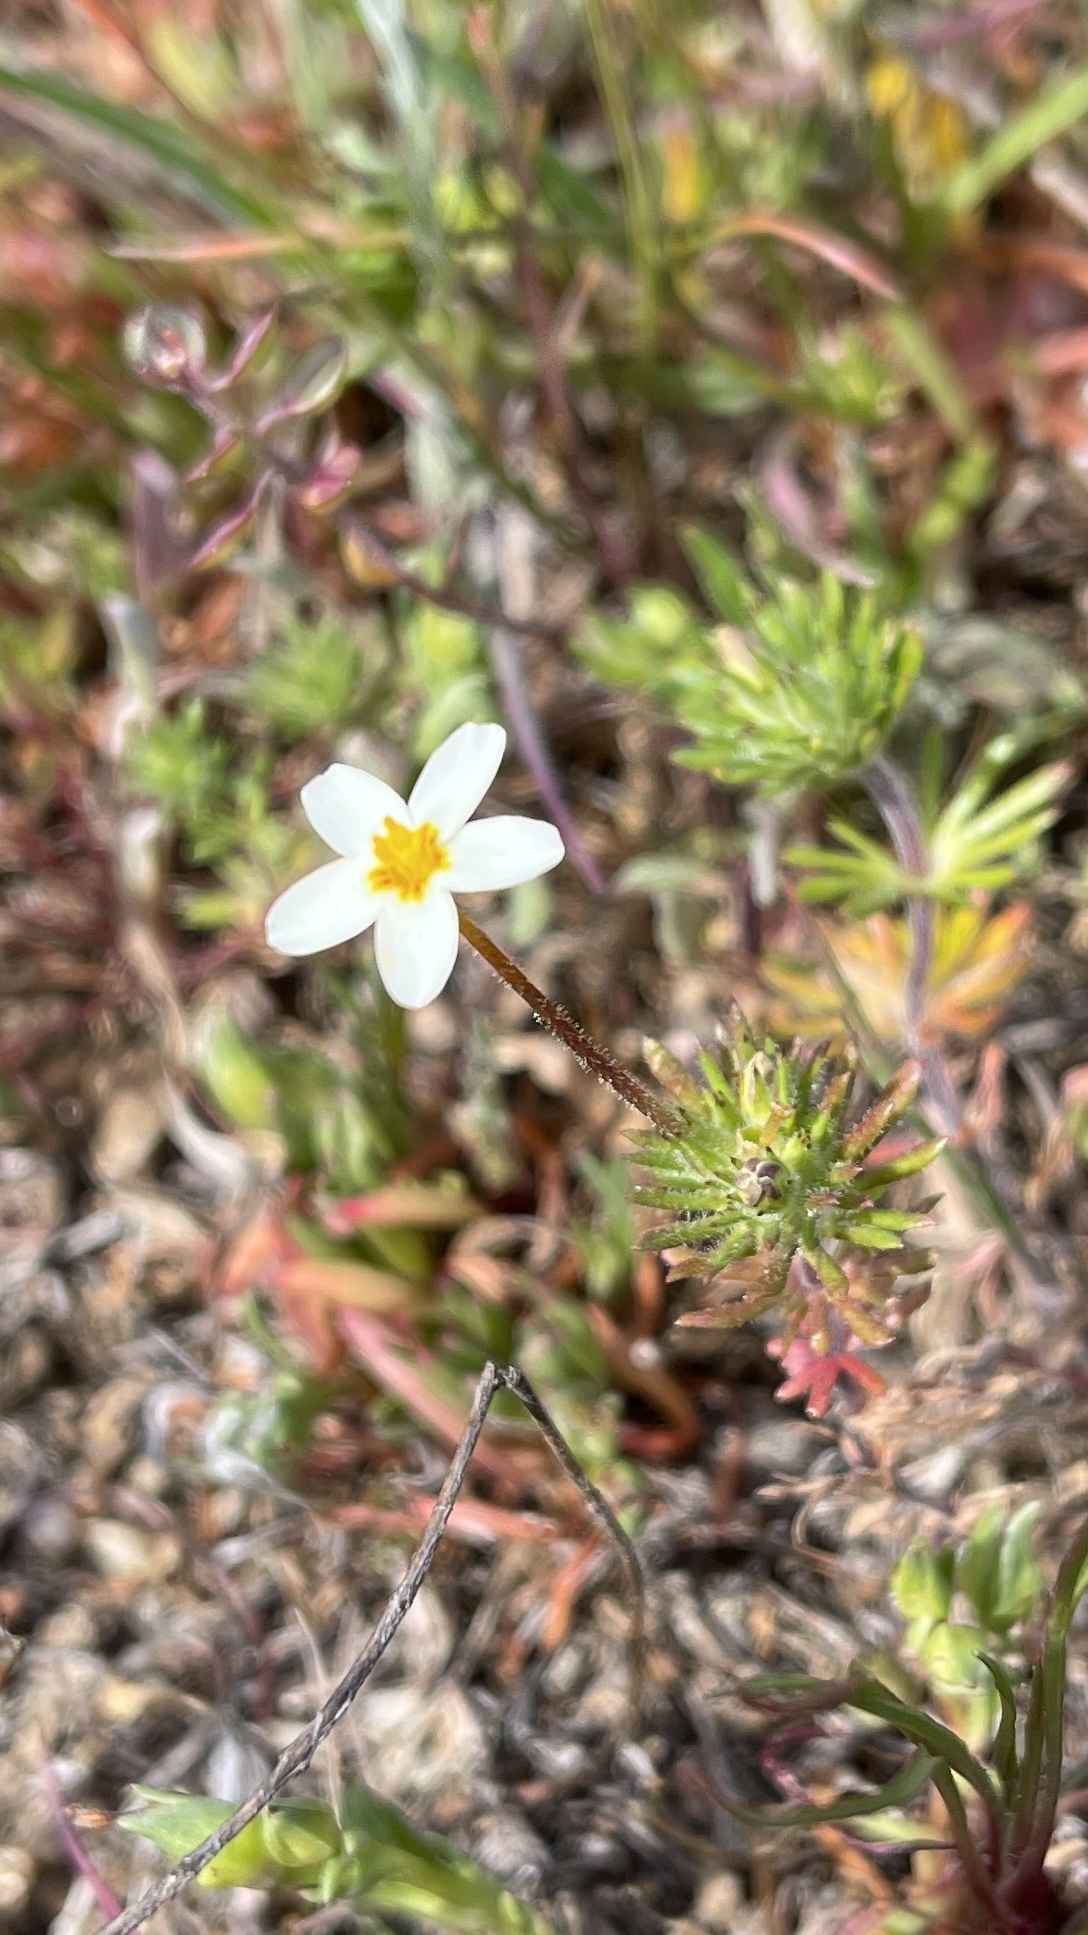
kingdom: Plantae
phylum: Tracheophyta
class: Magnoliopsida
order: Ericales
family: Polemoniaceae
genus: Leptosiphon
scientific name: Leptosiphon parviflorus
